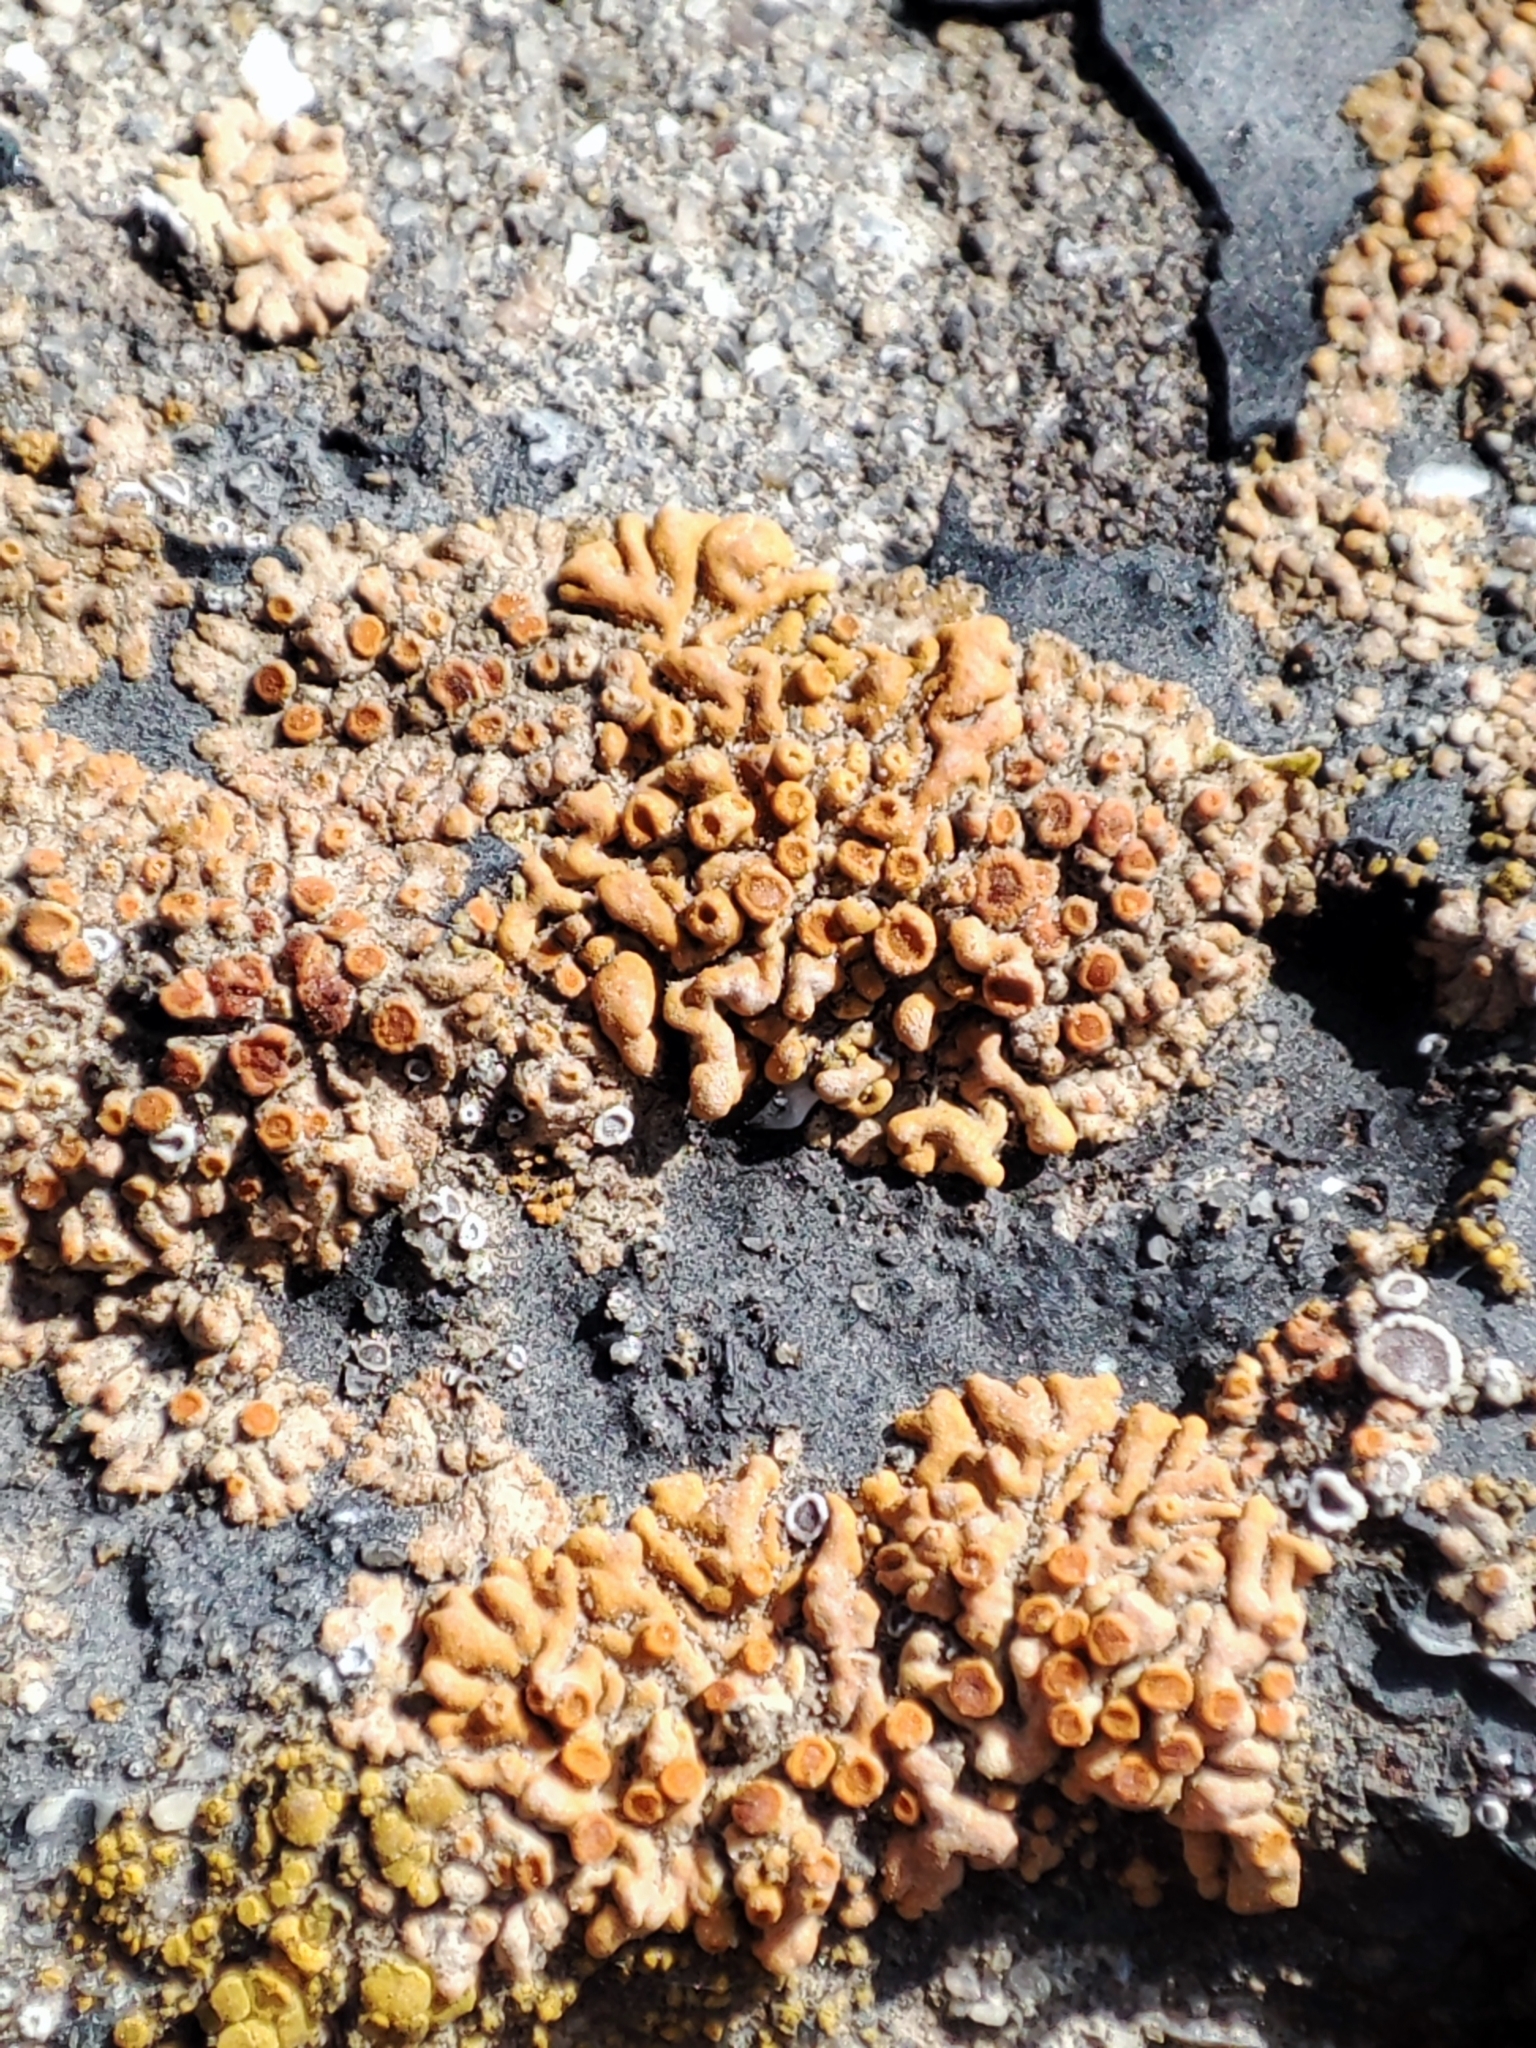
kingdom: Fungi
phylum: Ascomycota
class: Lecanoromycetes
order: Teloschistales
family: Teloschistaceae
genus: Calogaya
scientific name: Calogaya saxicola
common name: Rock jewel lichen
